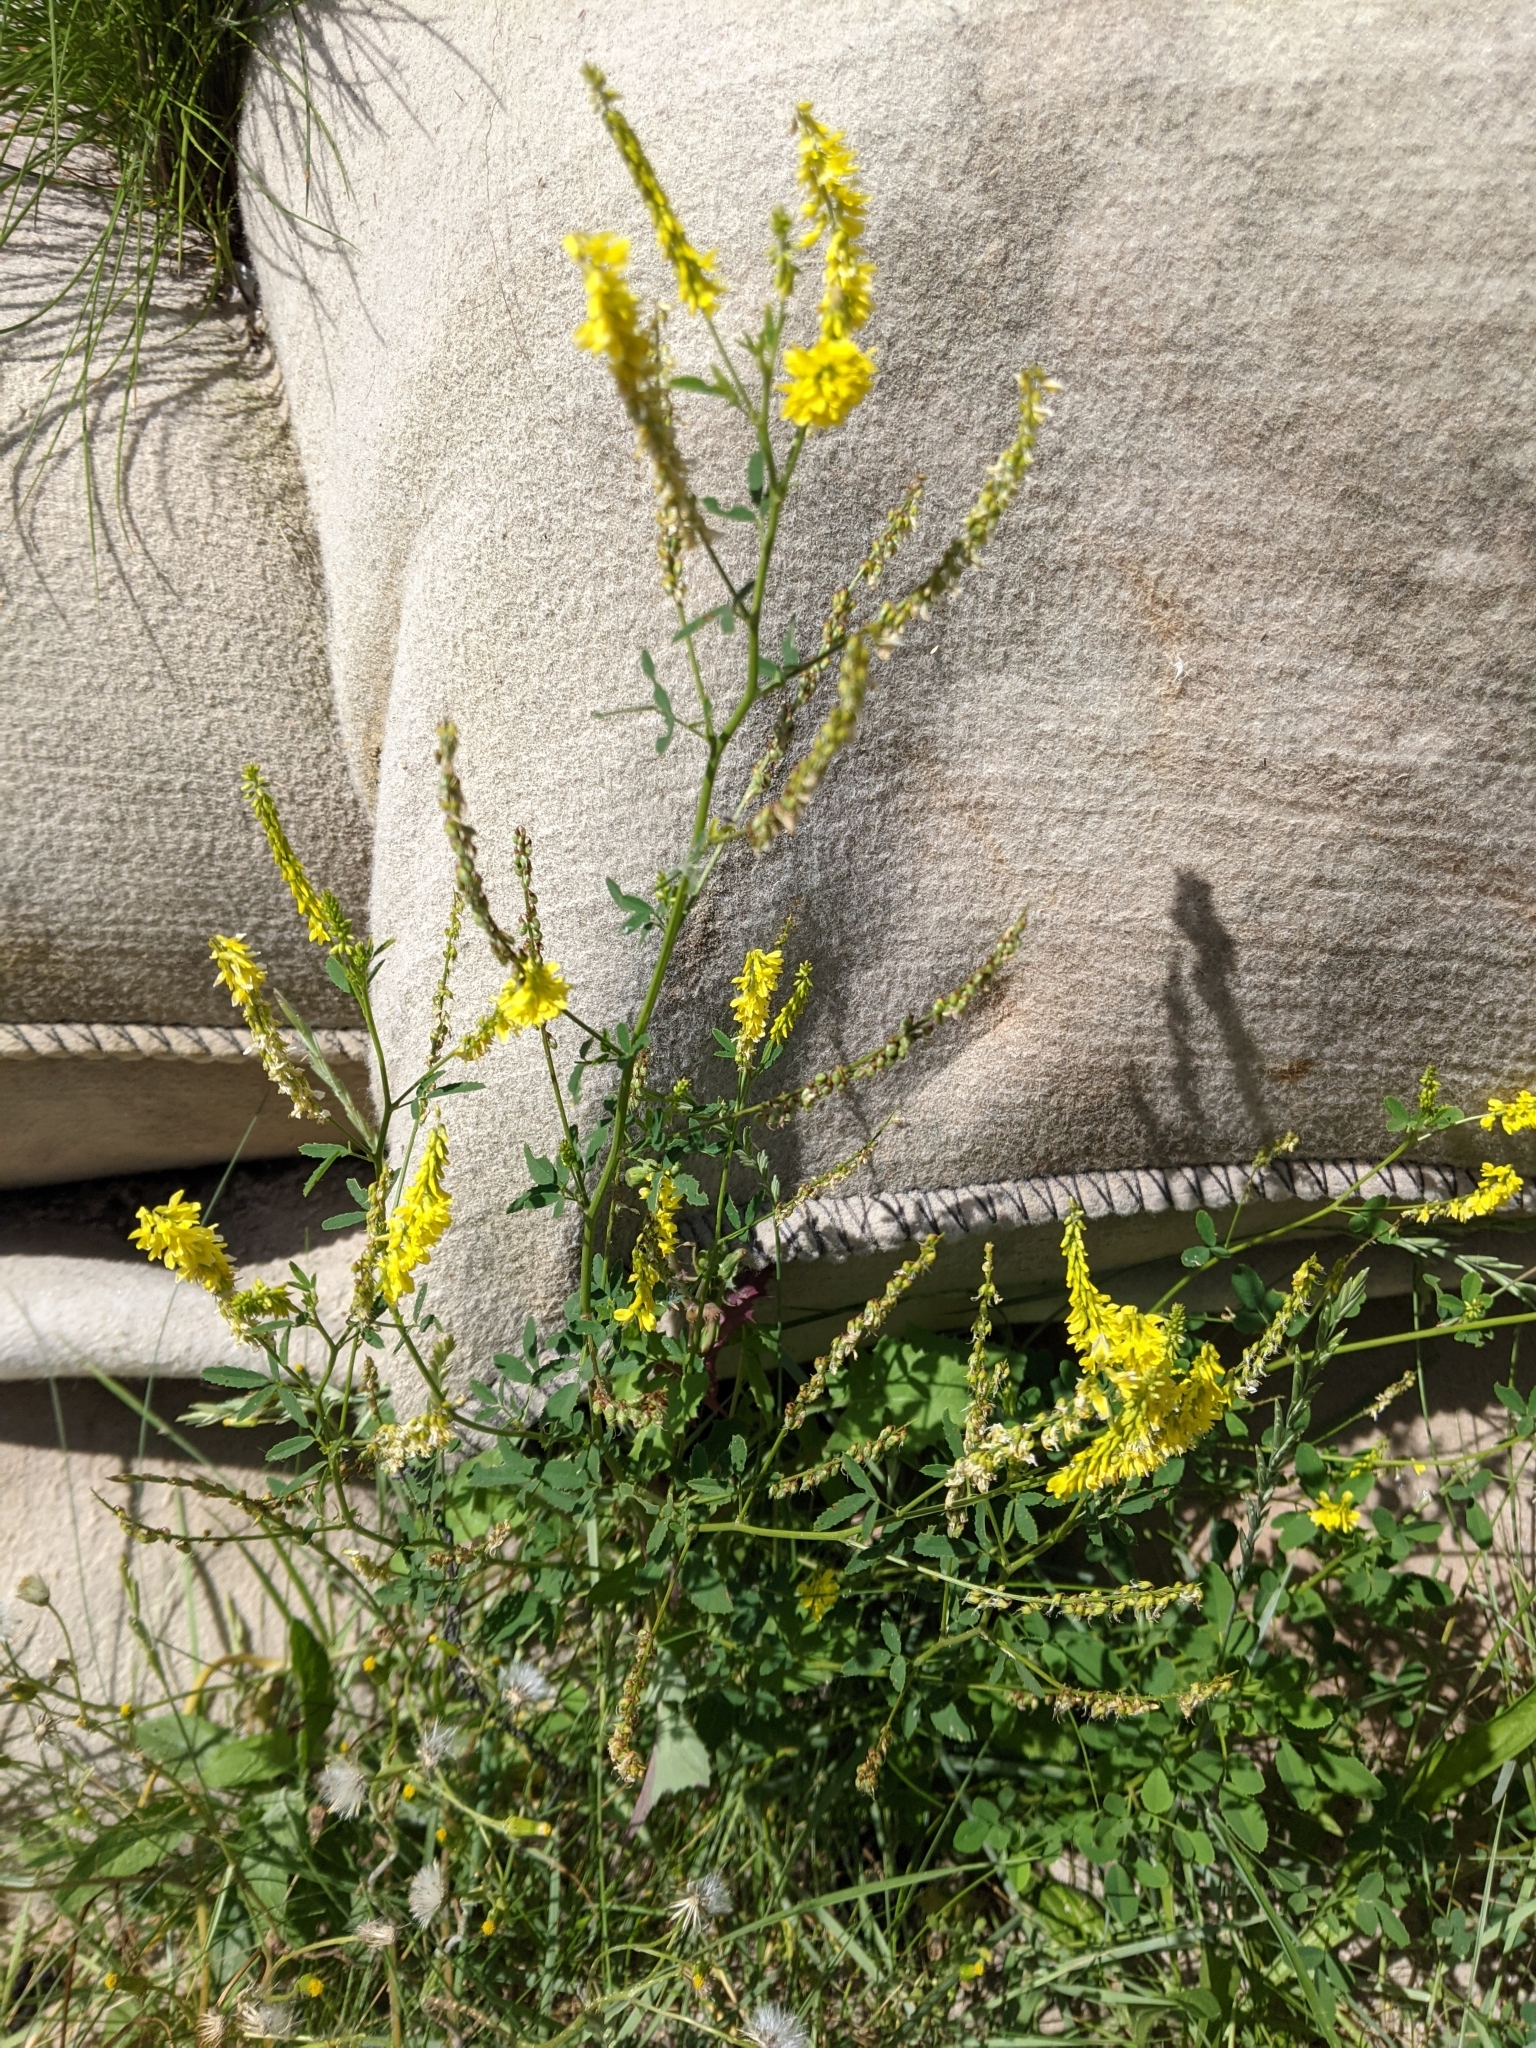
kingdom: Plantae
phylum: Tracheophyta
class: Magnoliopsida
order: Fabales
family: Fabaceae
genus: Melilotus
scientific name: Melilotus officinalis
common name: Sweetclover
